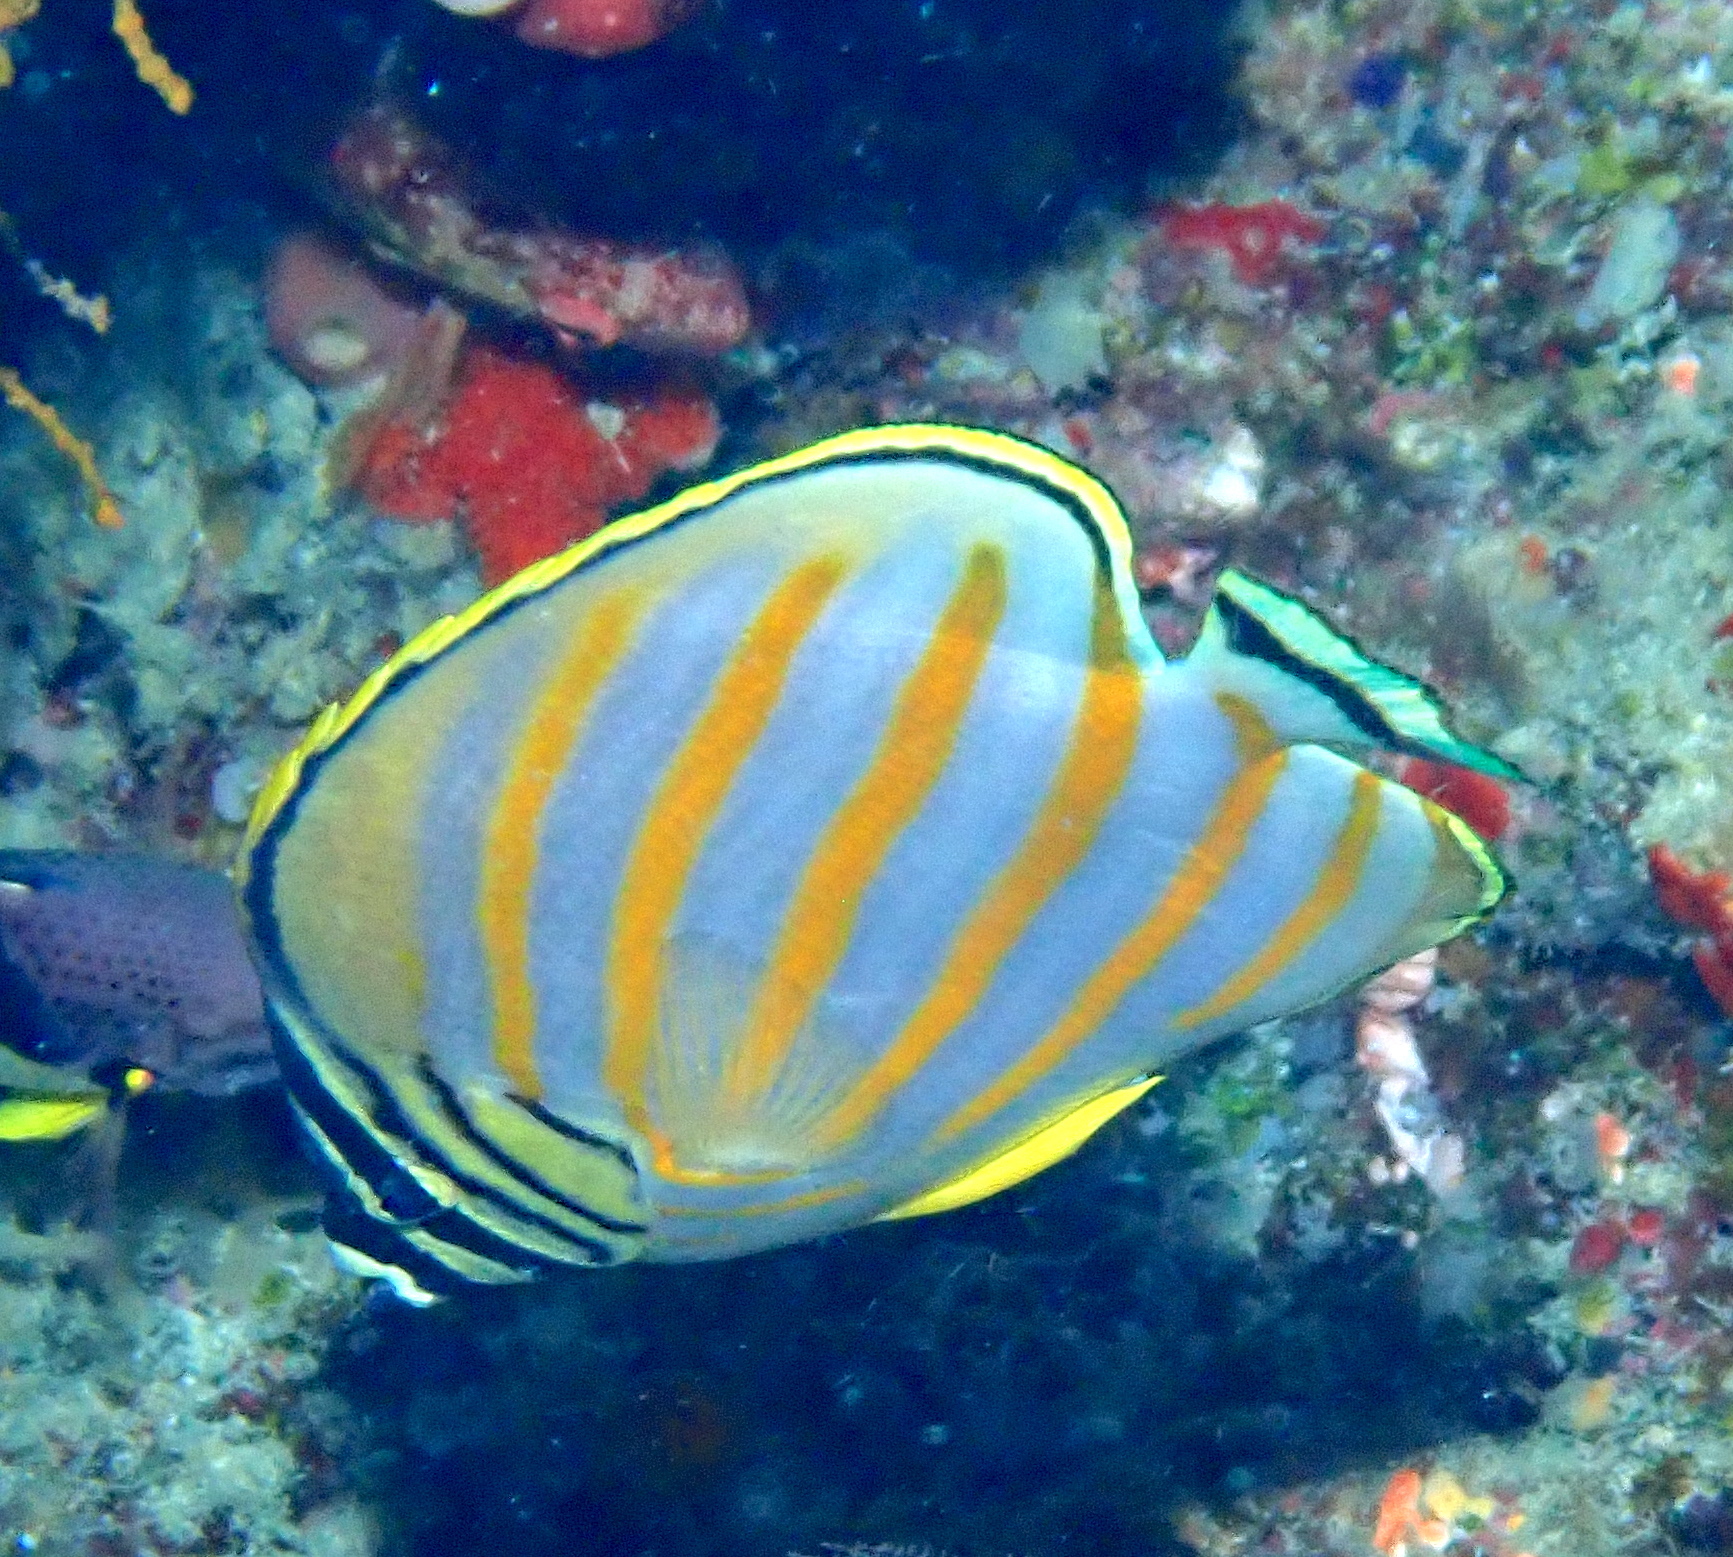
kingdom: Animalia
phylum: Chordata
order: Perciformes
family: Chaetodontidae
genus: Chaetodon
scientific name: Chaetodon ornatissimus
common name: Ornate butterflyfish
